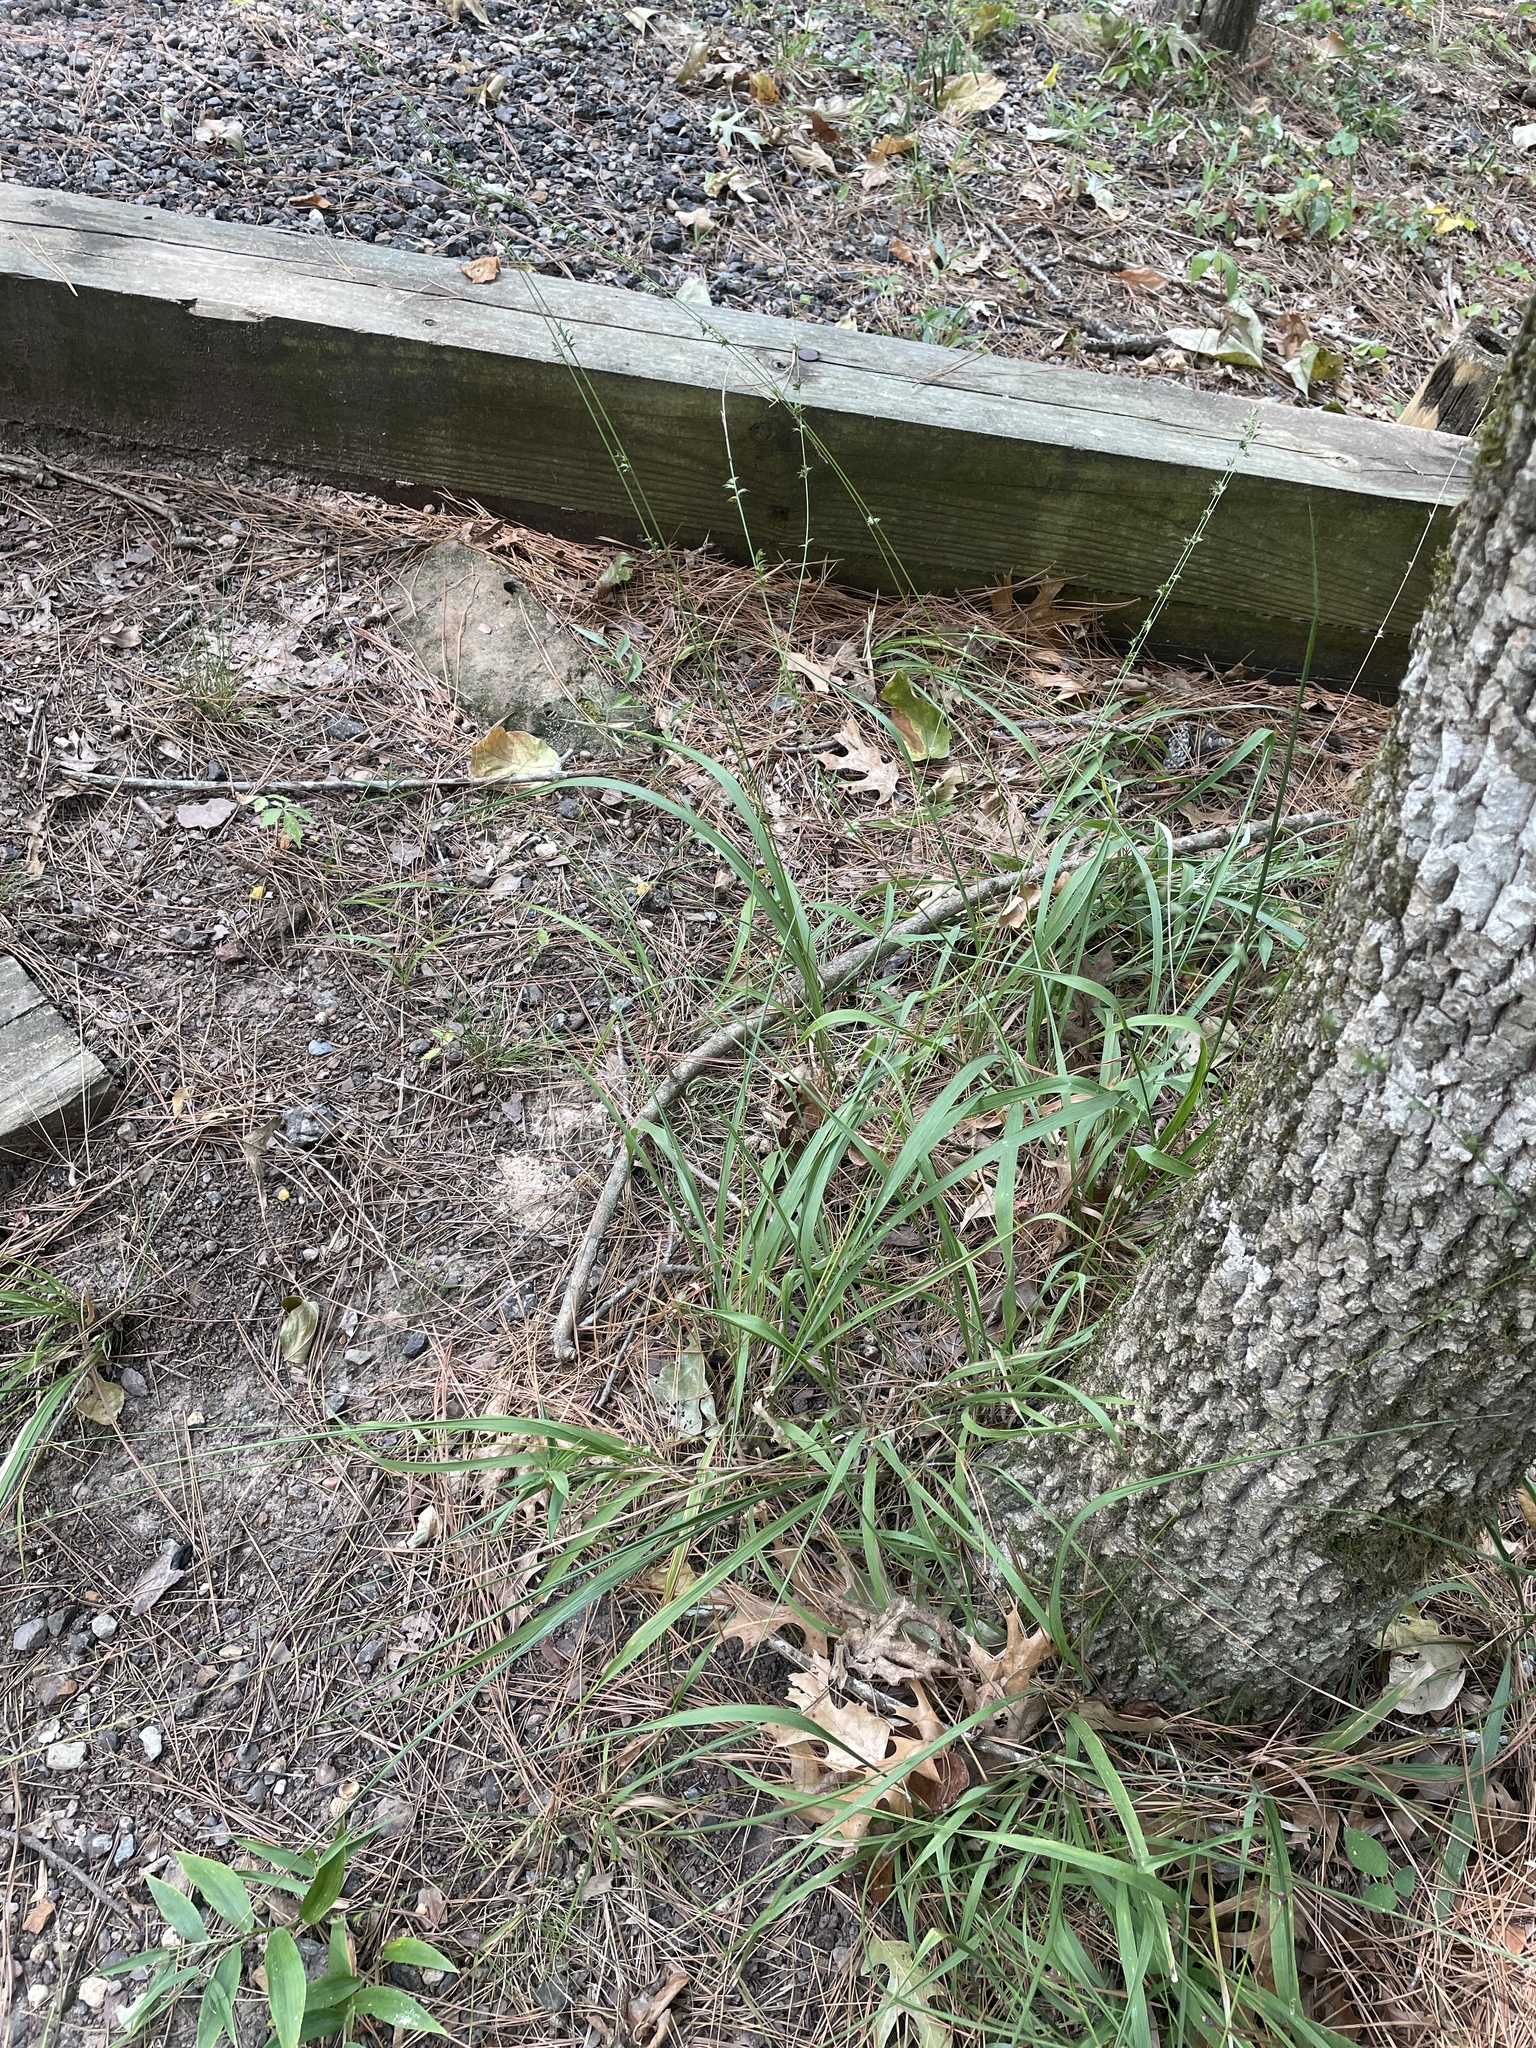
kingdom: Plantae
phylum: Tracheophyta
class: Liliopsida
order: Poales
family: Poaceae
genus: Chasmanthium
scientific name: Chasmanthium laxum
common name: Slender chasmanthium
